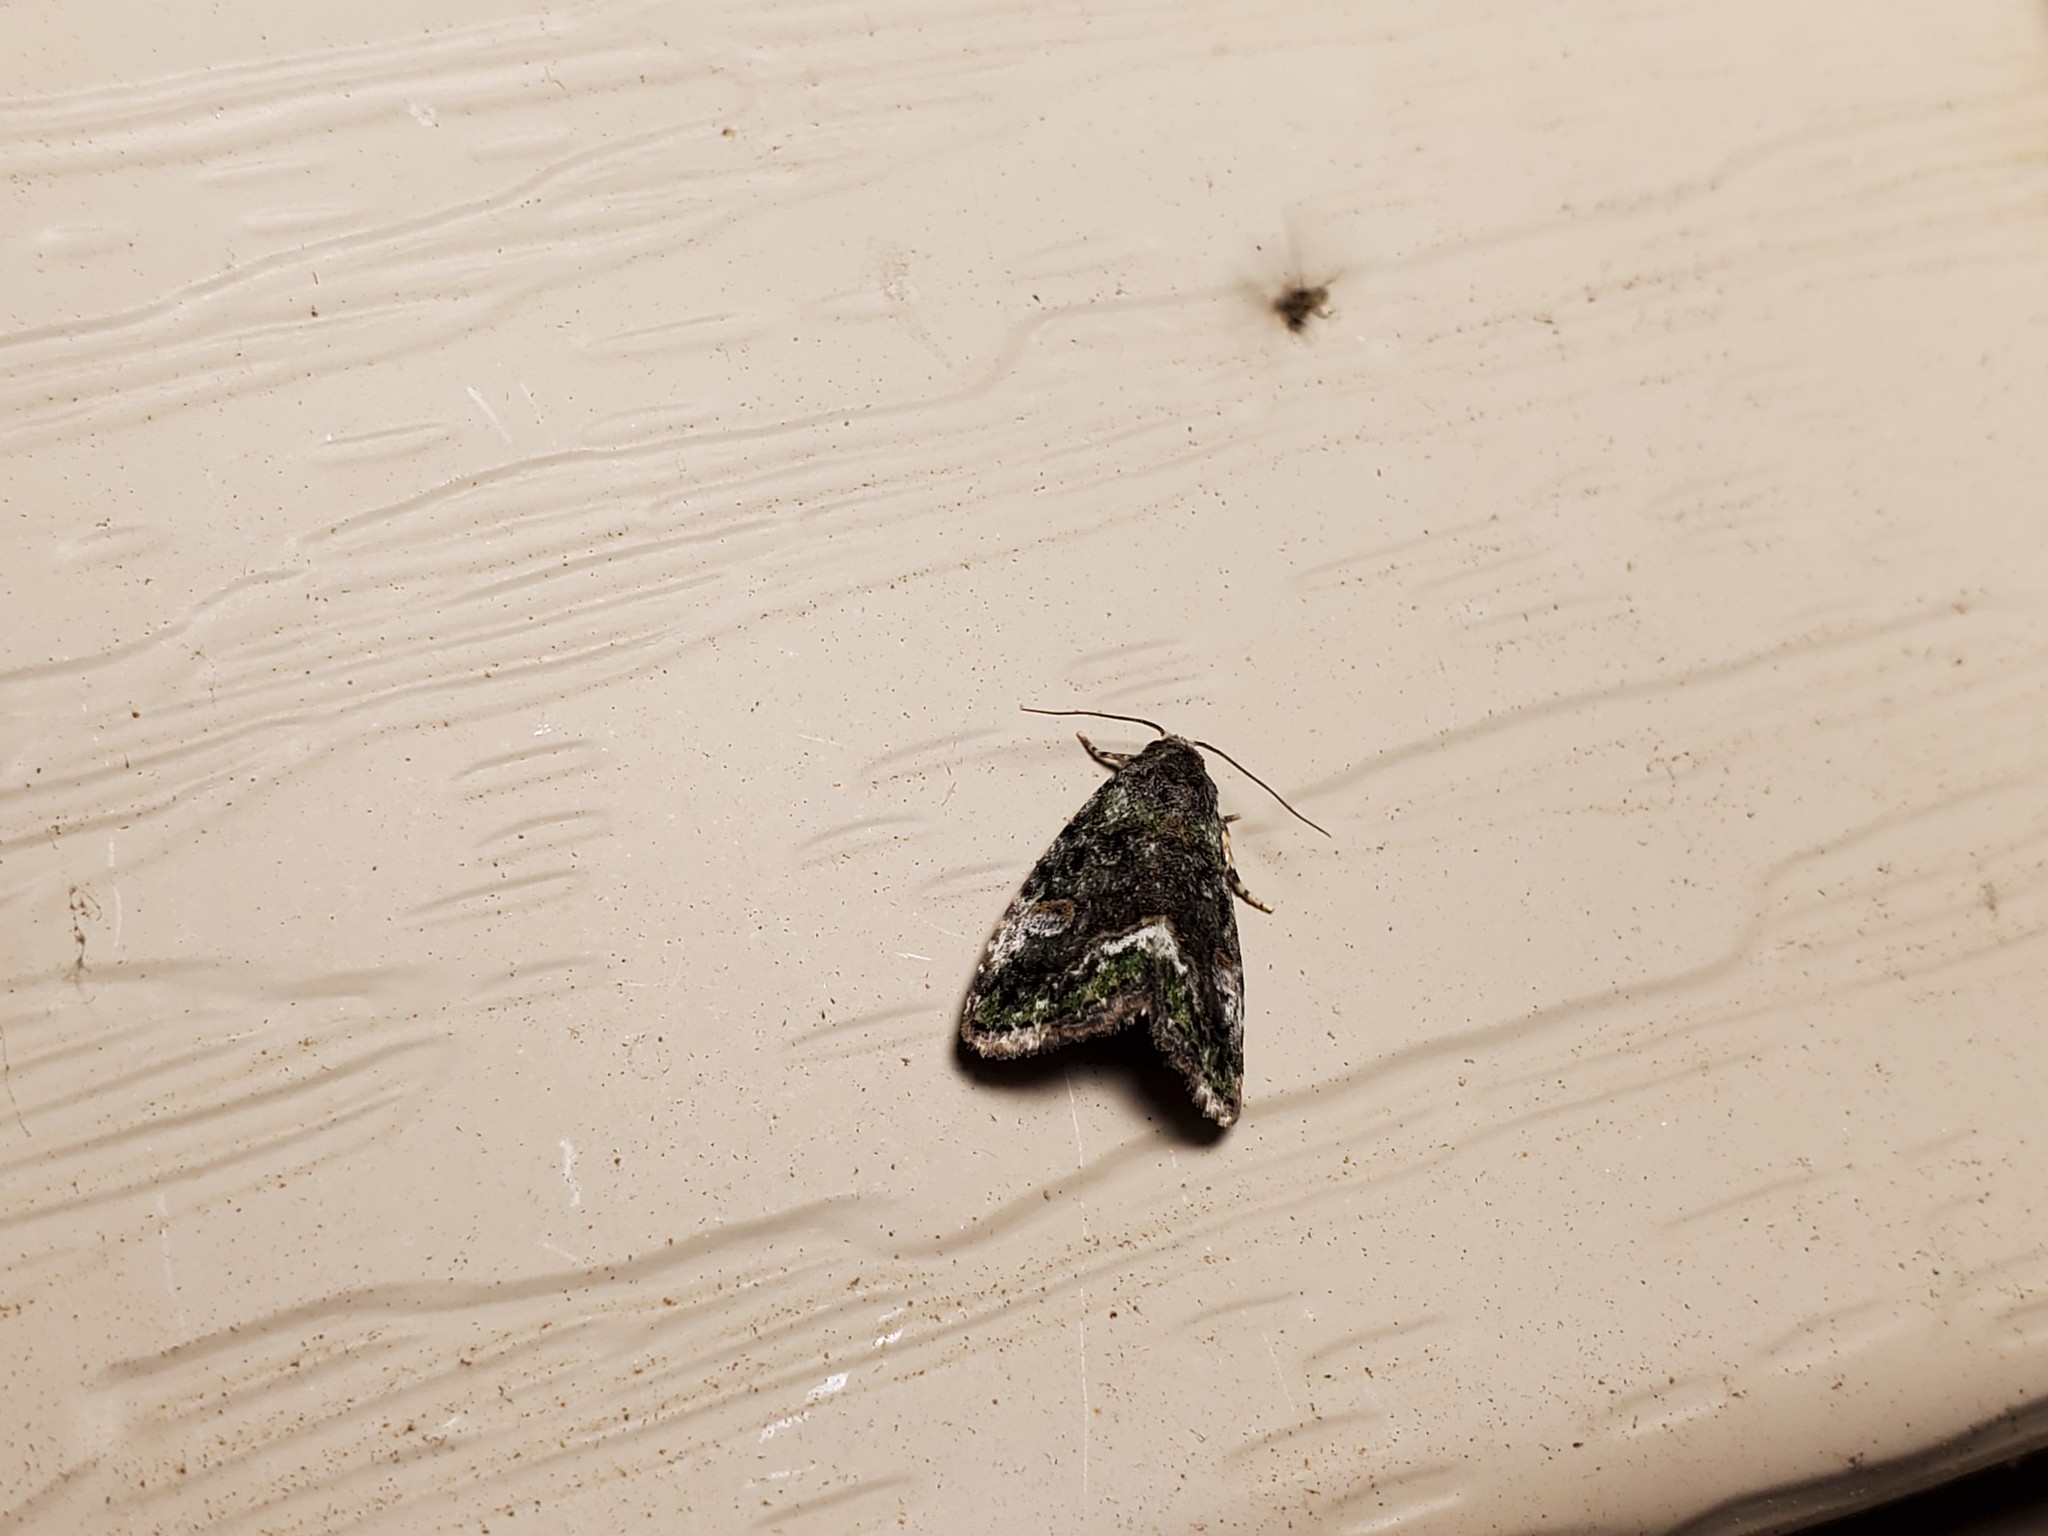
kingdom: Animalia
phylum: Arthropoda
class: Insecta
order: Lepidoptera
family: Noctuidae
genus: Lithacodia
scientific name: Lithacodia musta
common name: Small mossy glyph
